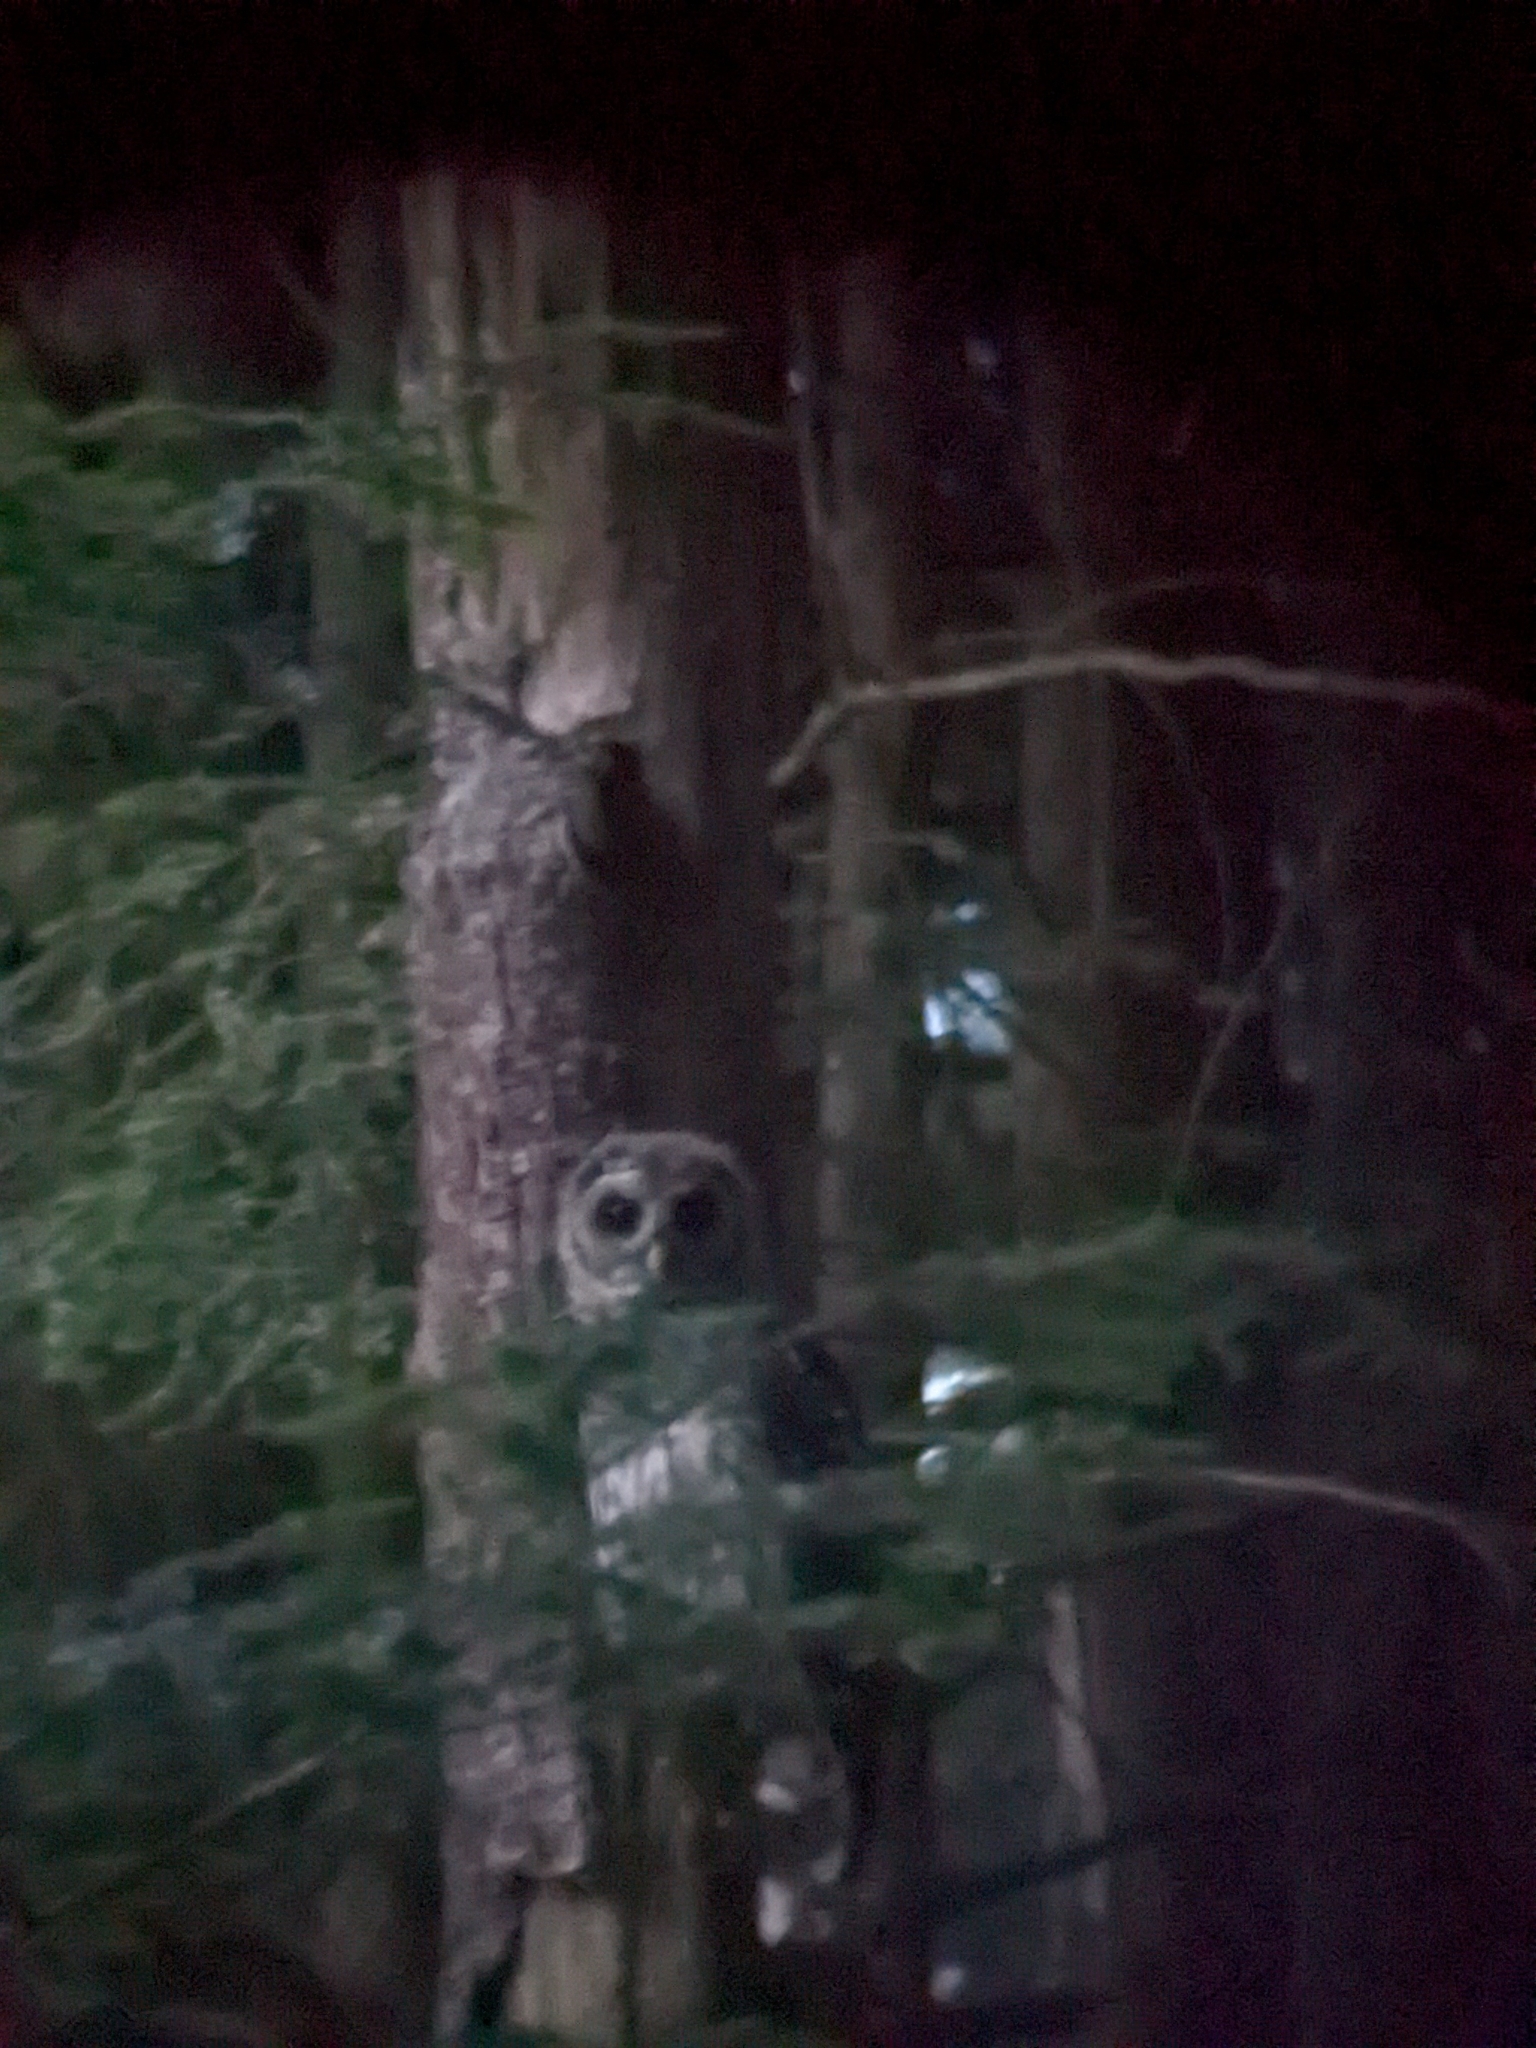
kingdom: Animalia
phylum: Chordata
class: Aves
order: Strigiformes
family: Strigidae
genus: Strix
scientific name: Strix varia
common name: Barred owl
